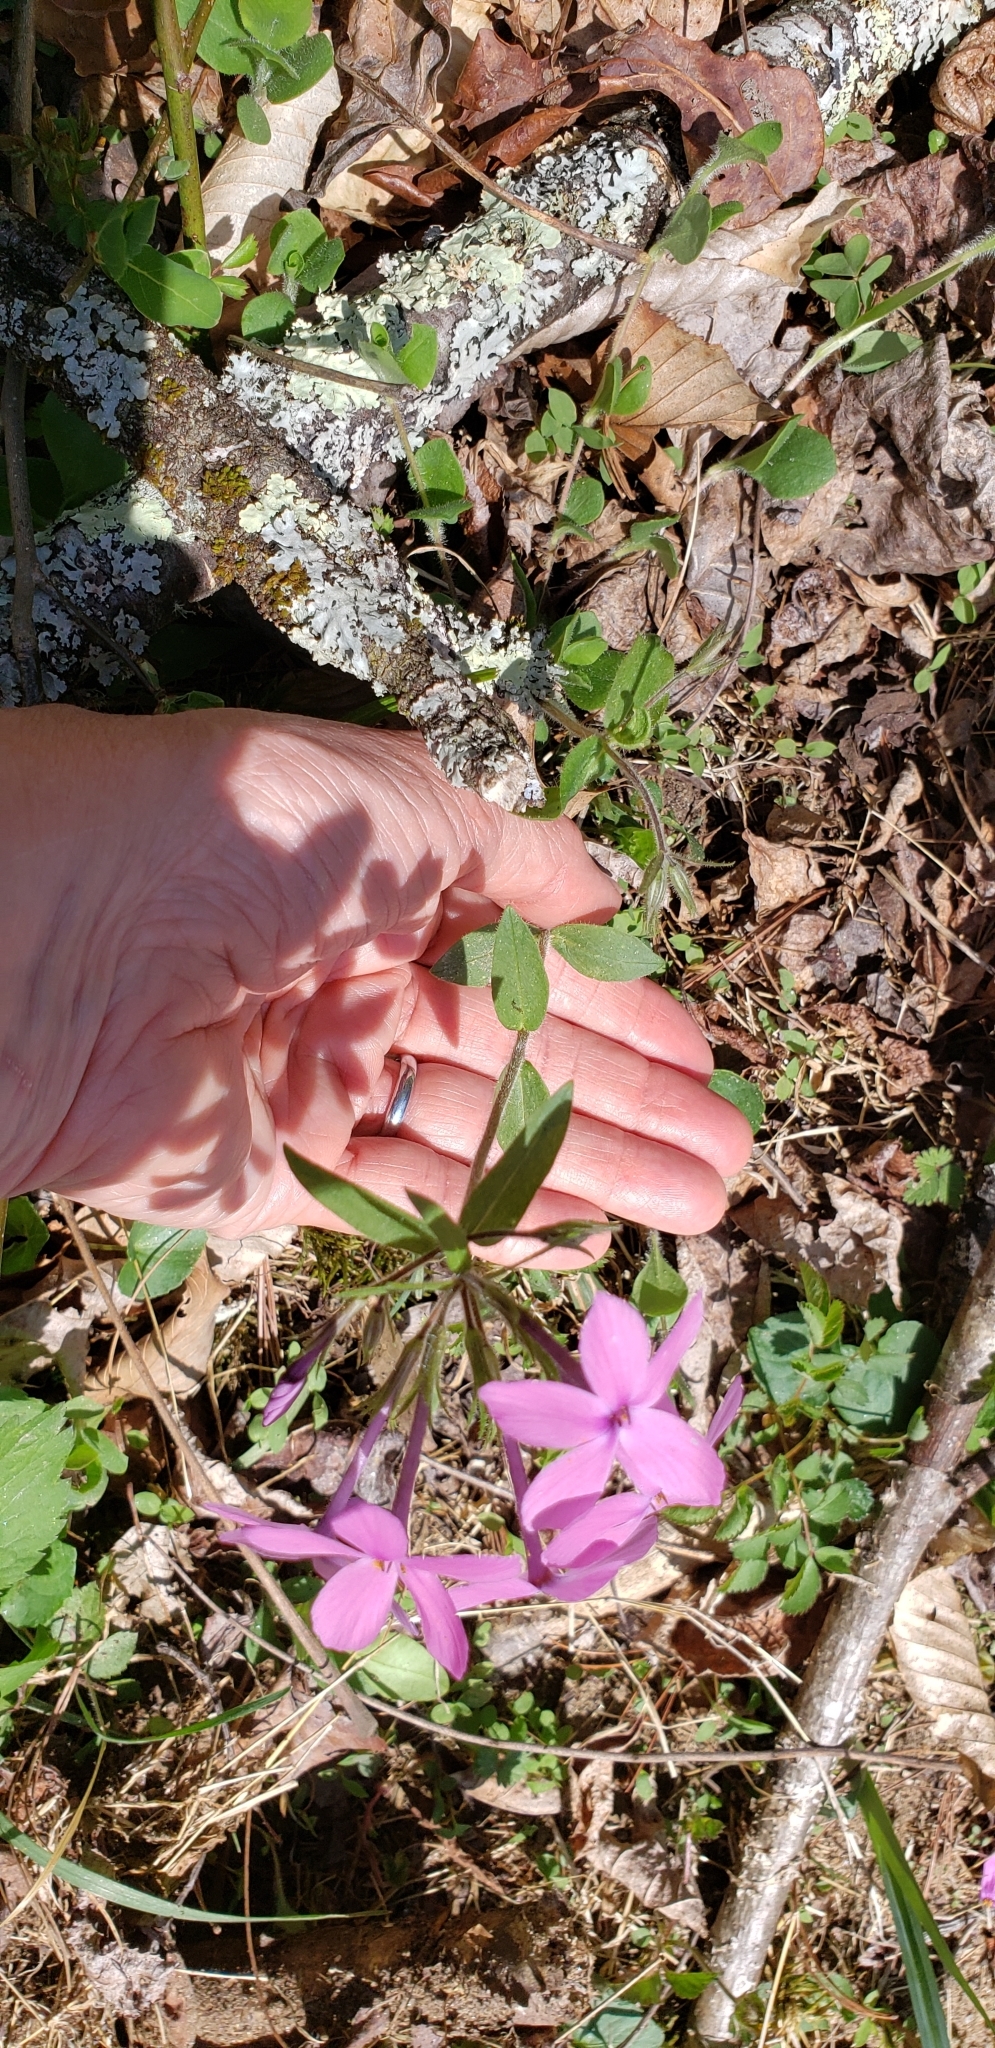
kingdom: Plantae
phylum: Tracheophyta
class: Magnoliopsida
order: Ericales
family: Polemoniaceae
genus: Phlox
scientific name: Phlox stolonifera
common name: Creeping phlox
